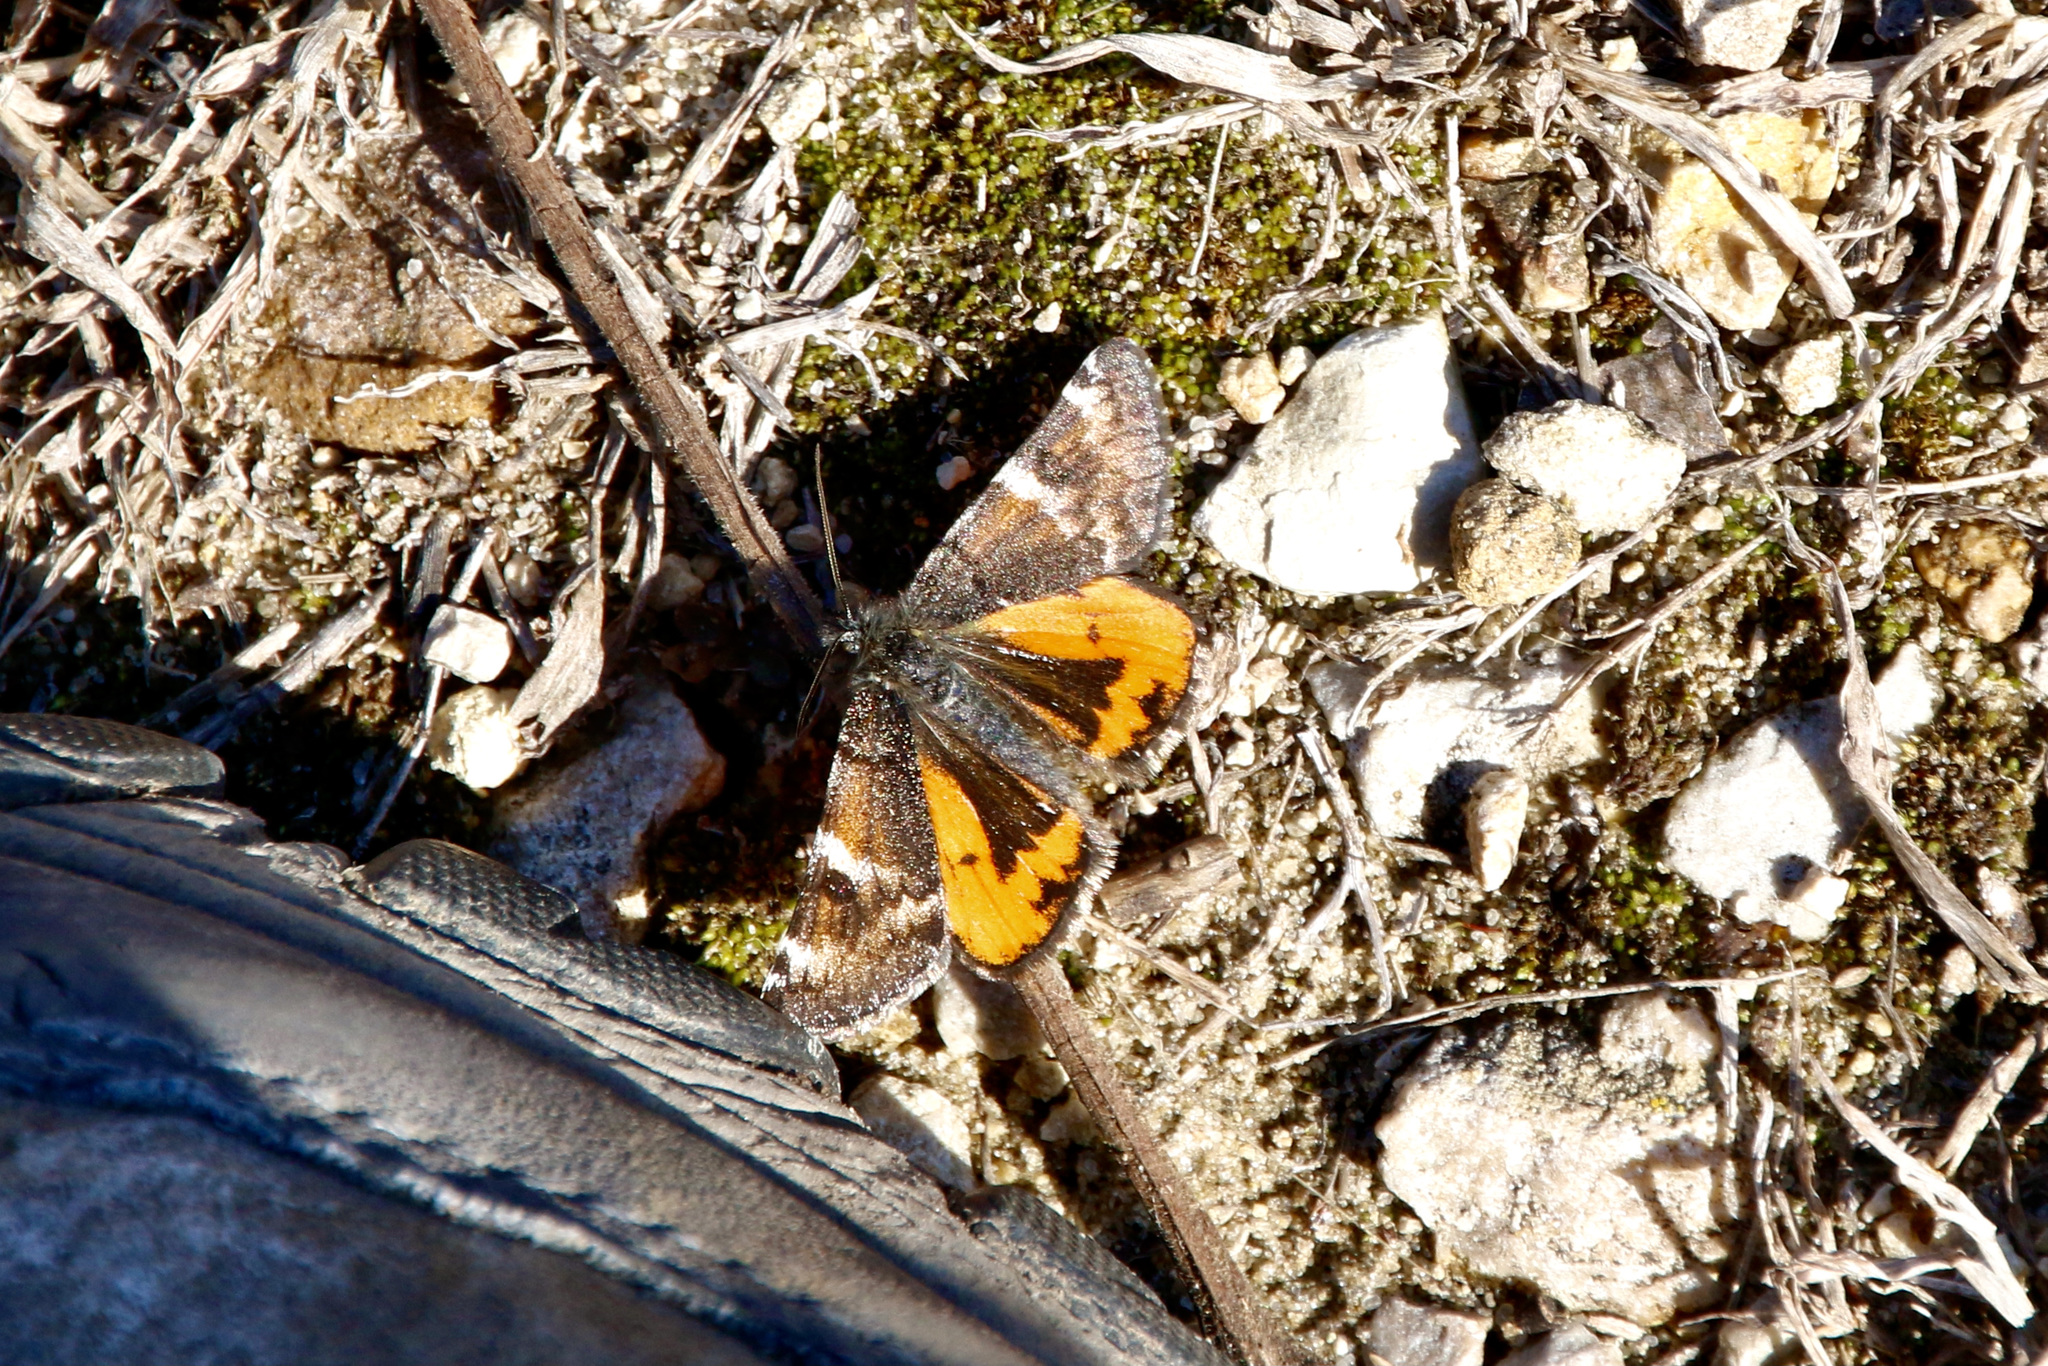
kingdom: Animalia
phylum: Arthropoda
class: Insecta
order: Lepidoptera
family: Geometridae
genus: Archiearis
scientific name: Archiearis infans
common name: First born geometer
